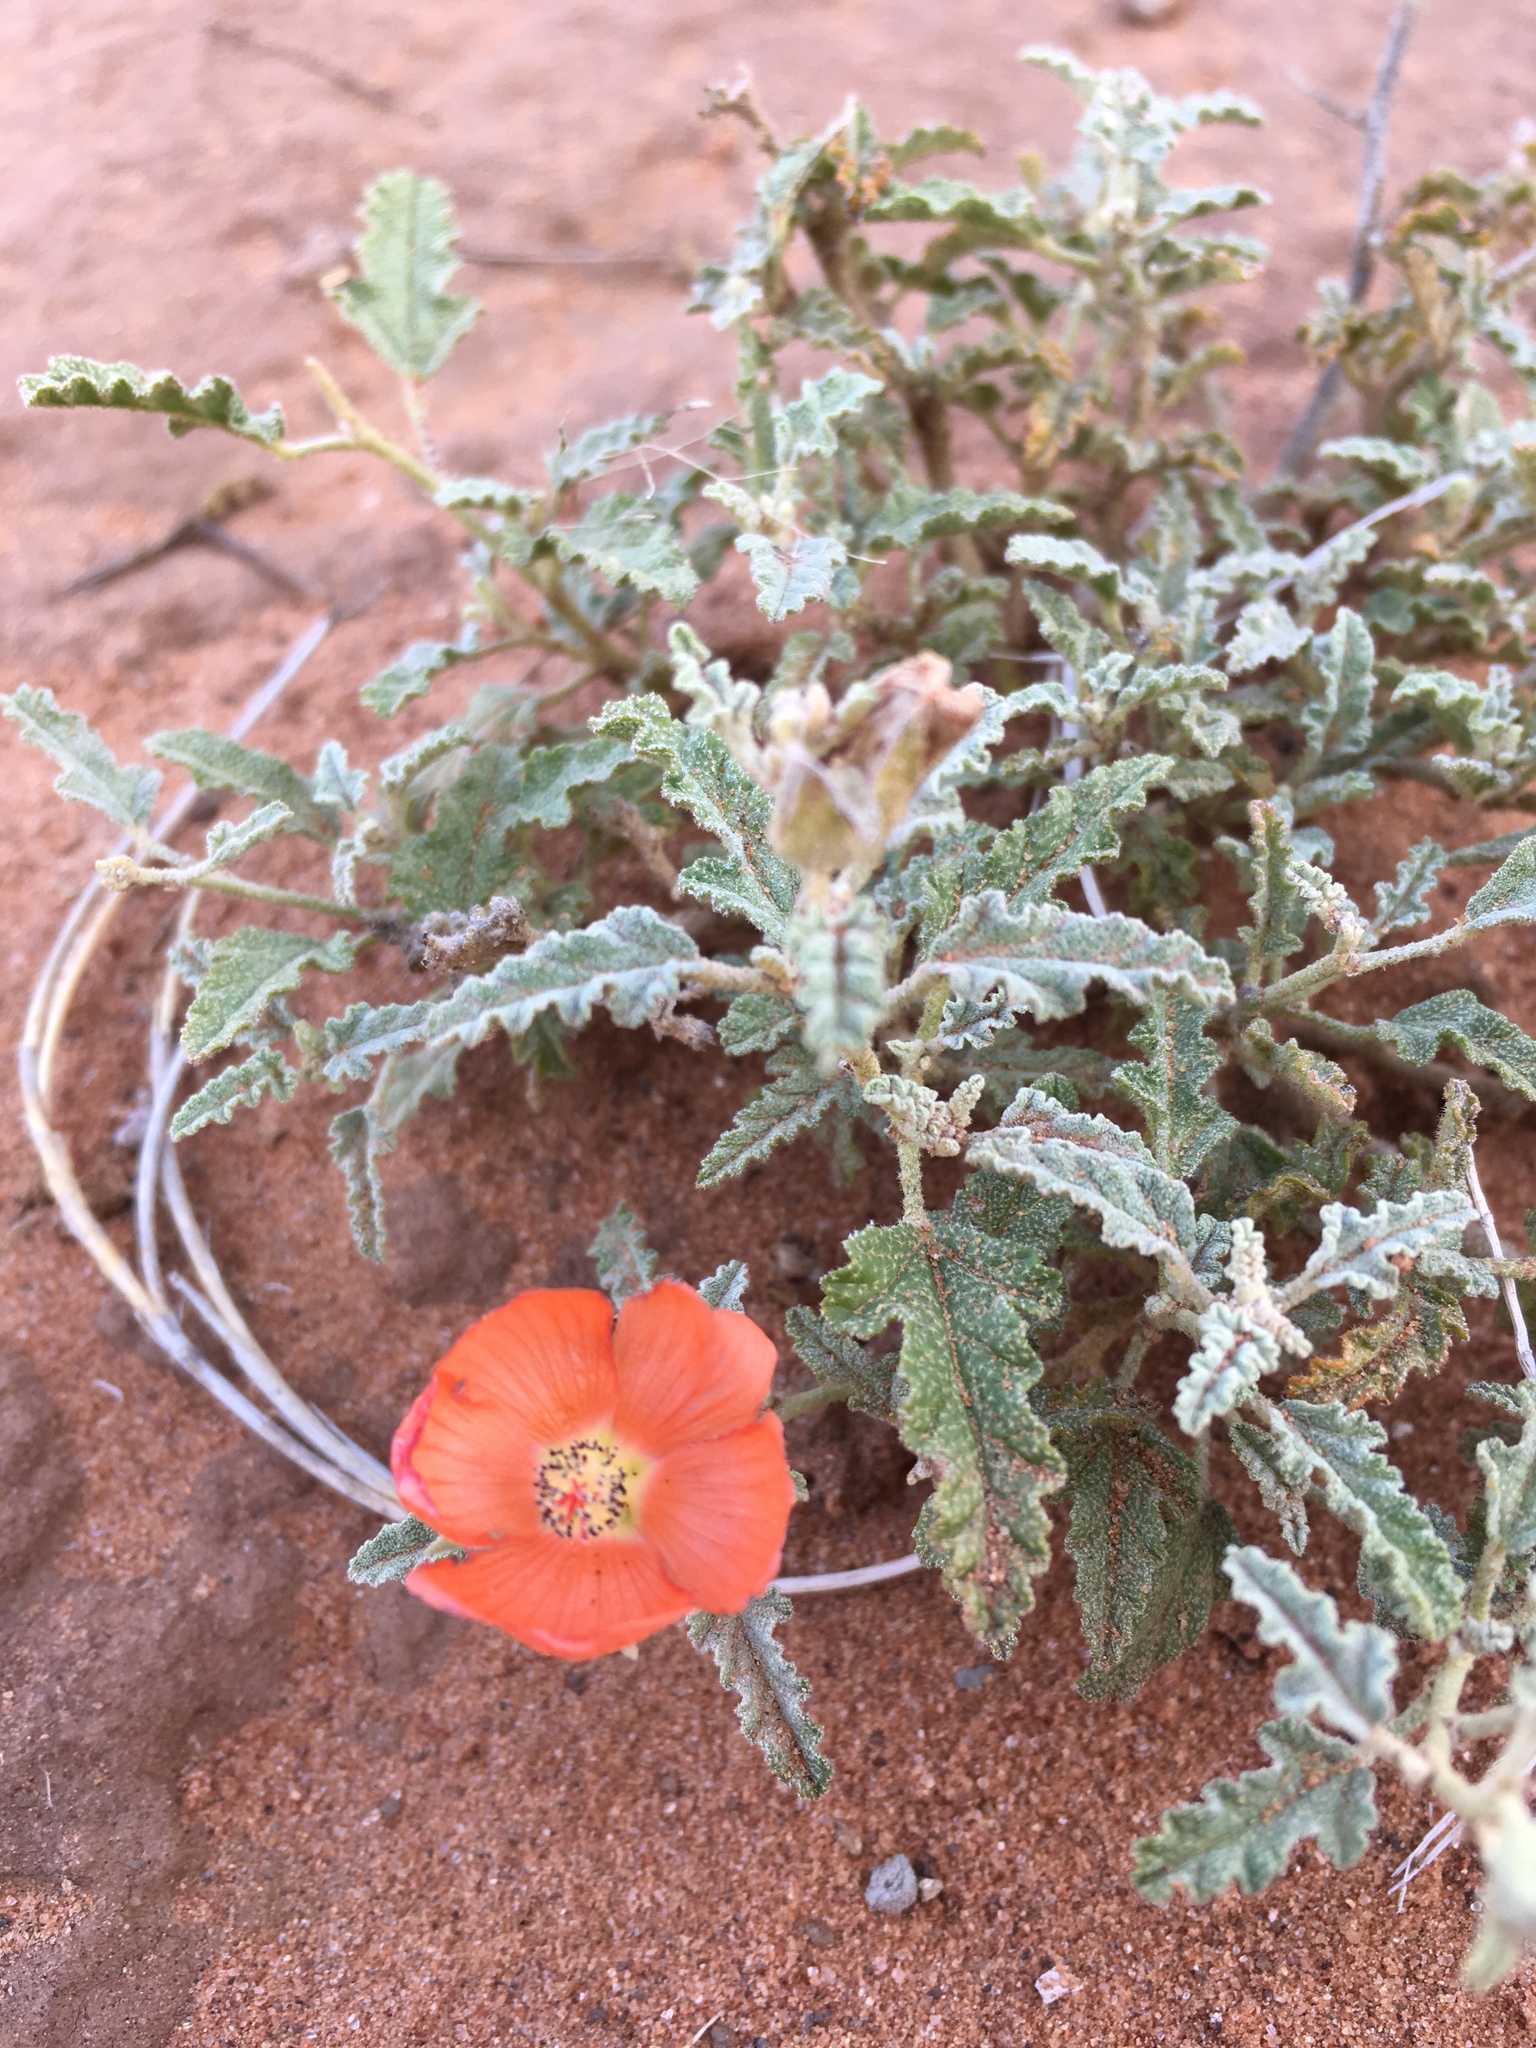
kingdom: Plantae
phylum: Tracheophyta
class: Magnoliopsida
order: Malvales
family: Malvaceae
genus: Sphaeralcea
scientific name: Sphaeralcea hastulata
